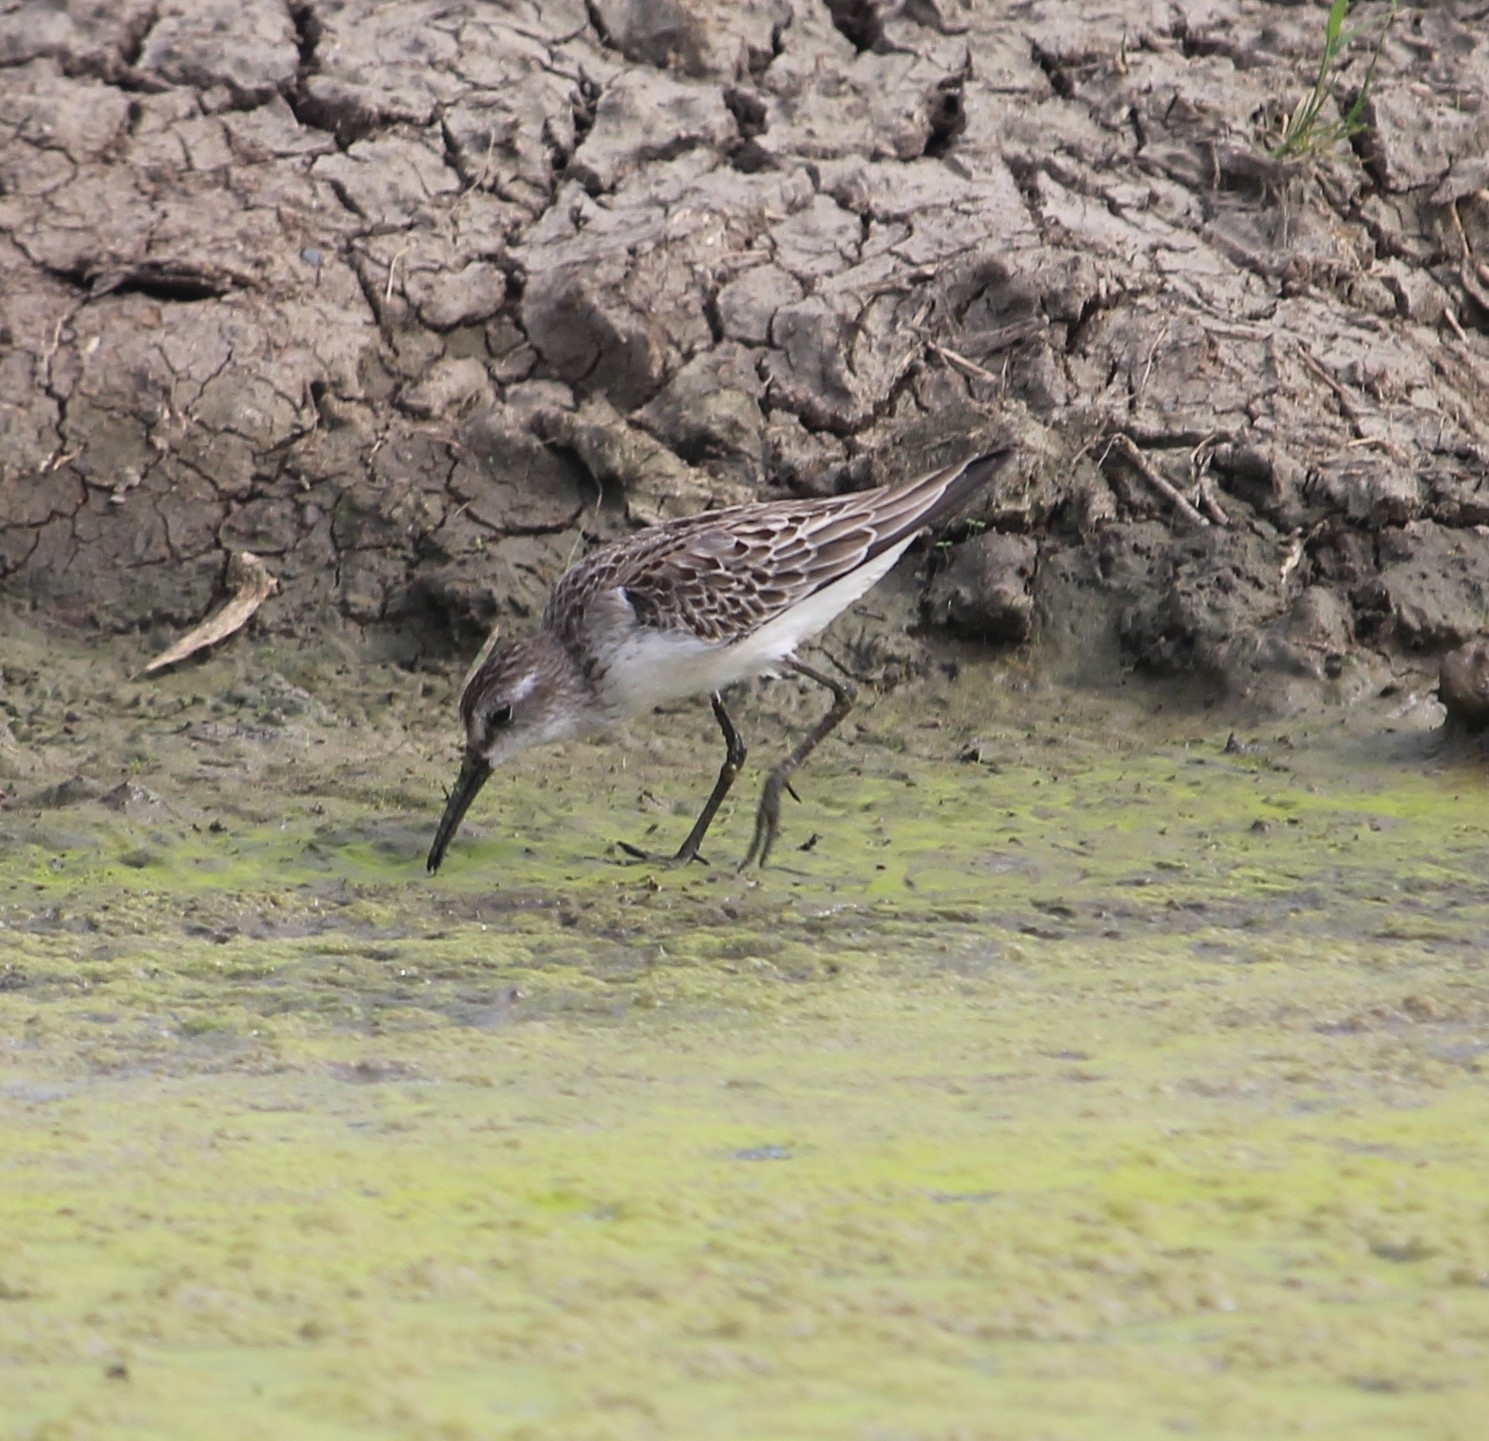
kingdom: Animalia
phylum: Chordata
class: Aves
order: Charadriiformes
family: Scolopacidae
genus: Calidris
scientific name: Calidris mauri
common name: Western sandpiper
